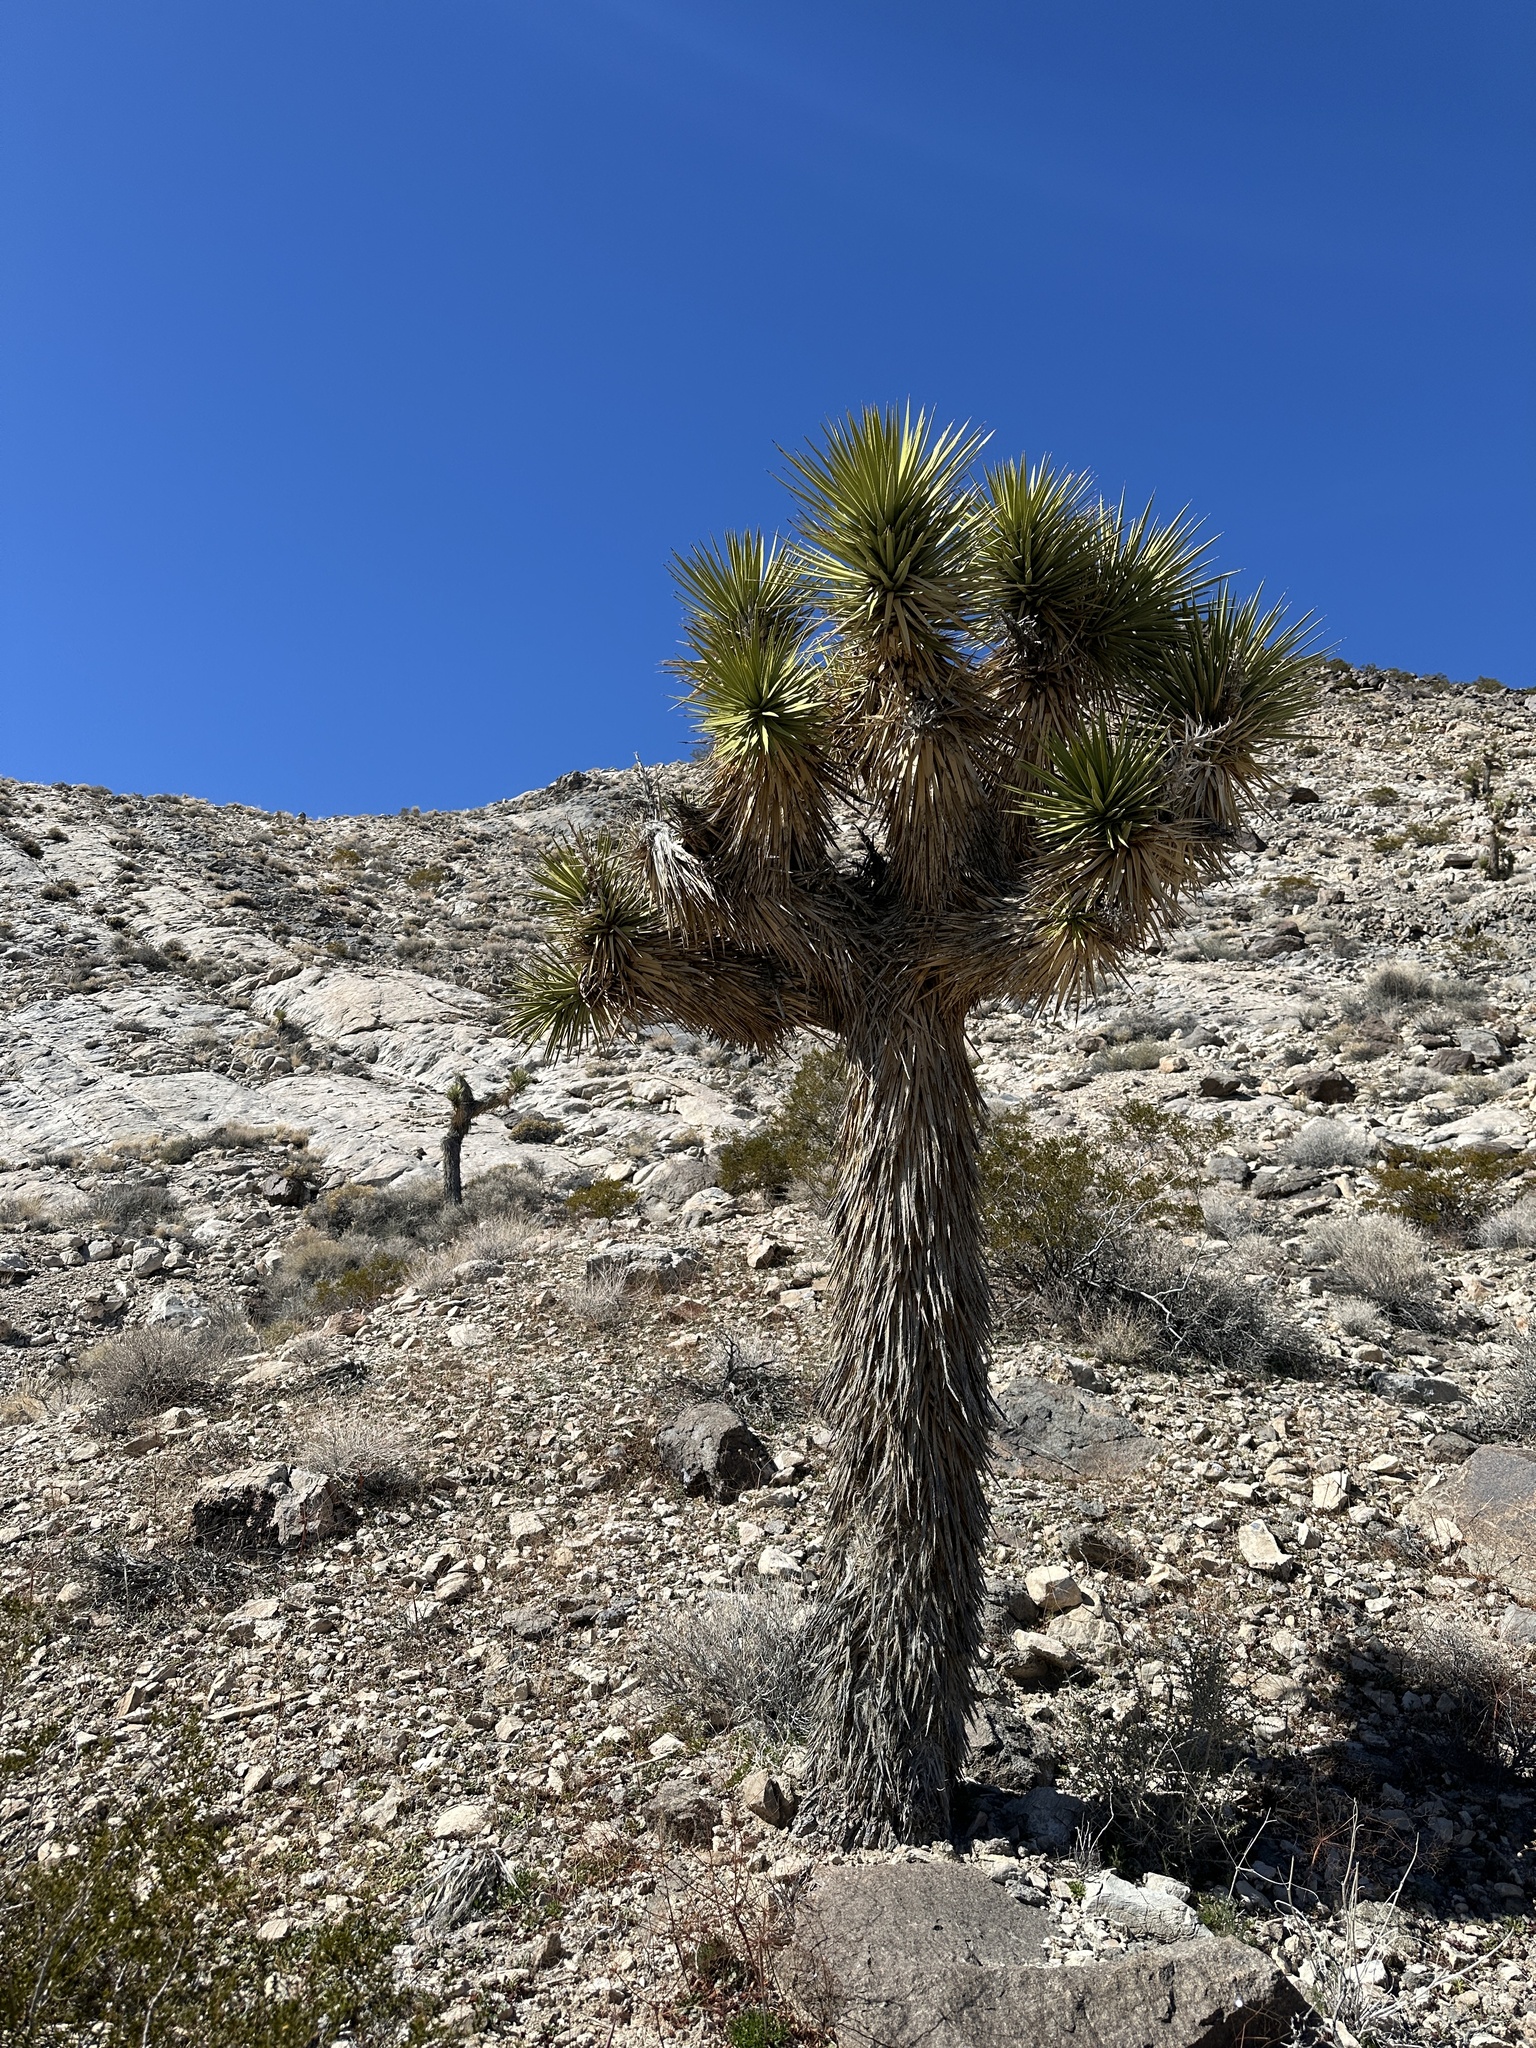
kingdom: Plantae
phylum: Tracheophyta
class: Liliopsida
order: Asparagales
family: Asparagaceae
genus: Yucca
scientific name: Yucca brevifolia
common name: Joshua tree
